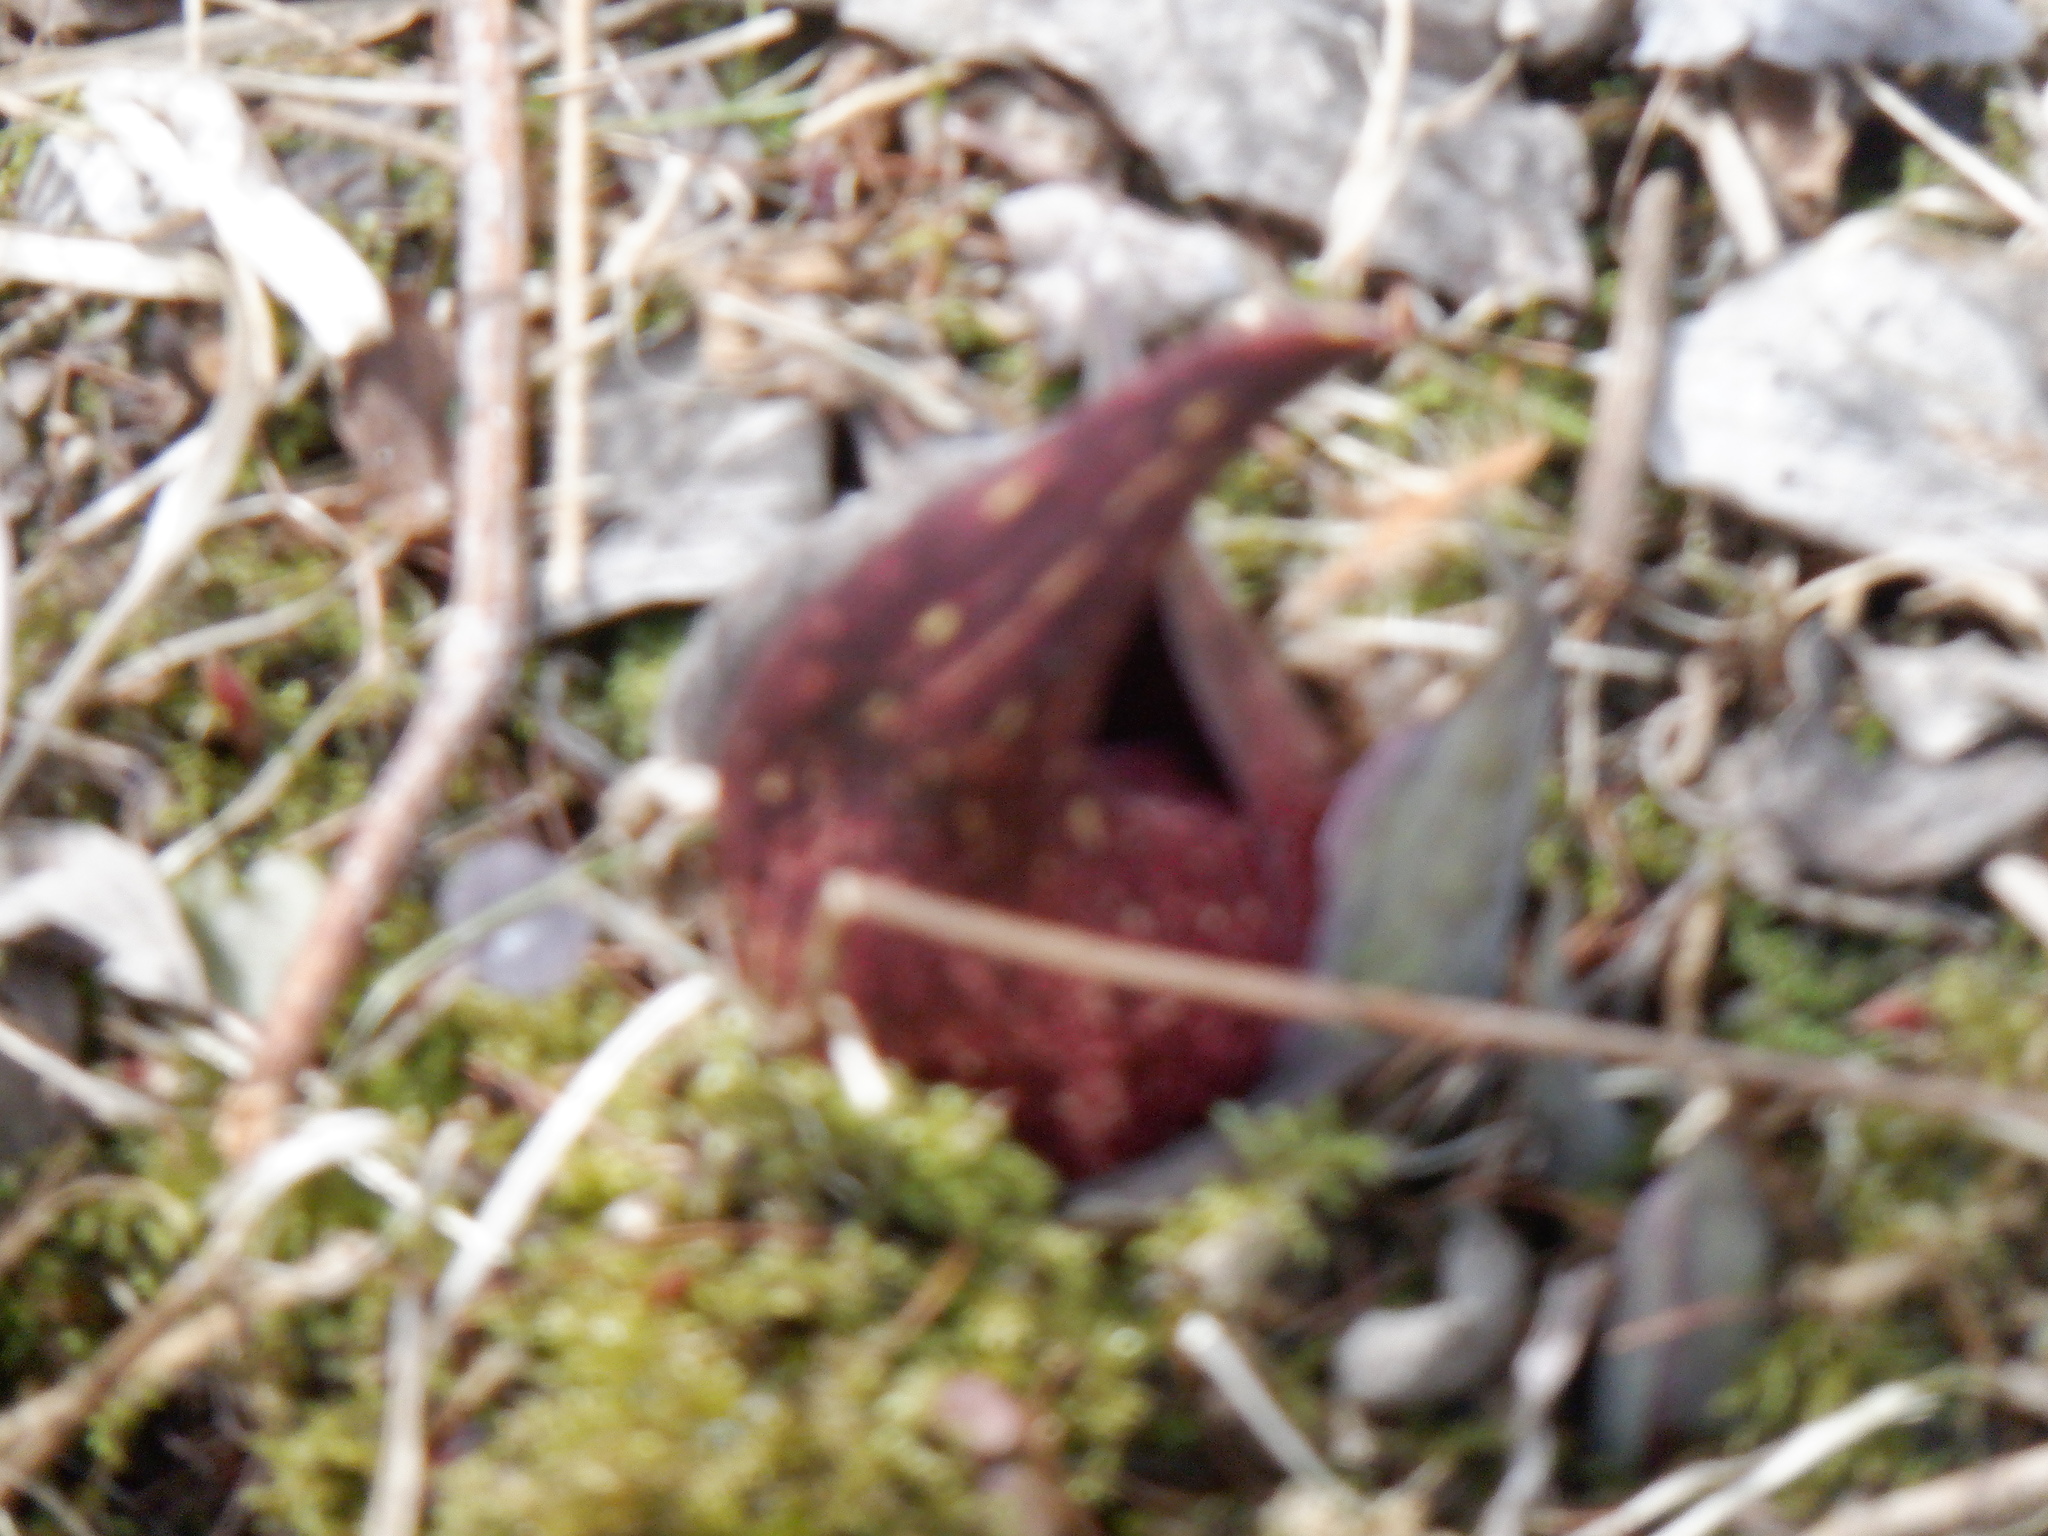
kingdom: Plantae
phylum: Tracheophyta
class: Liliopsida
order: Alismatales
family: Araceae
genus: Symplocarpus
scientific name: Symplocarpus foetidus
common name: Eastern skunk cabbage
